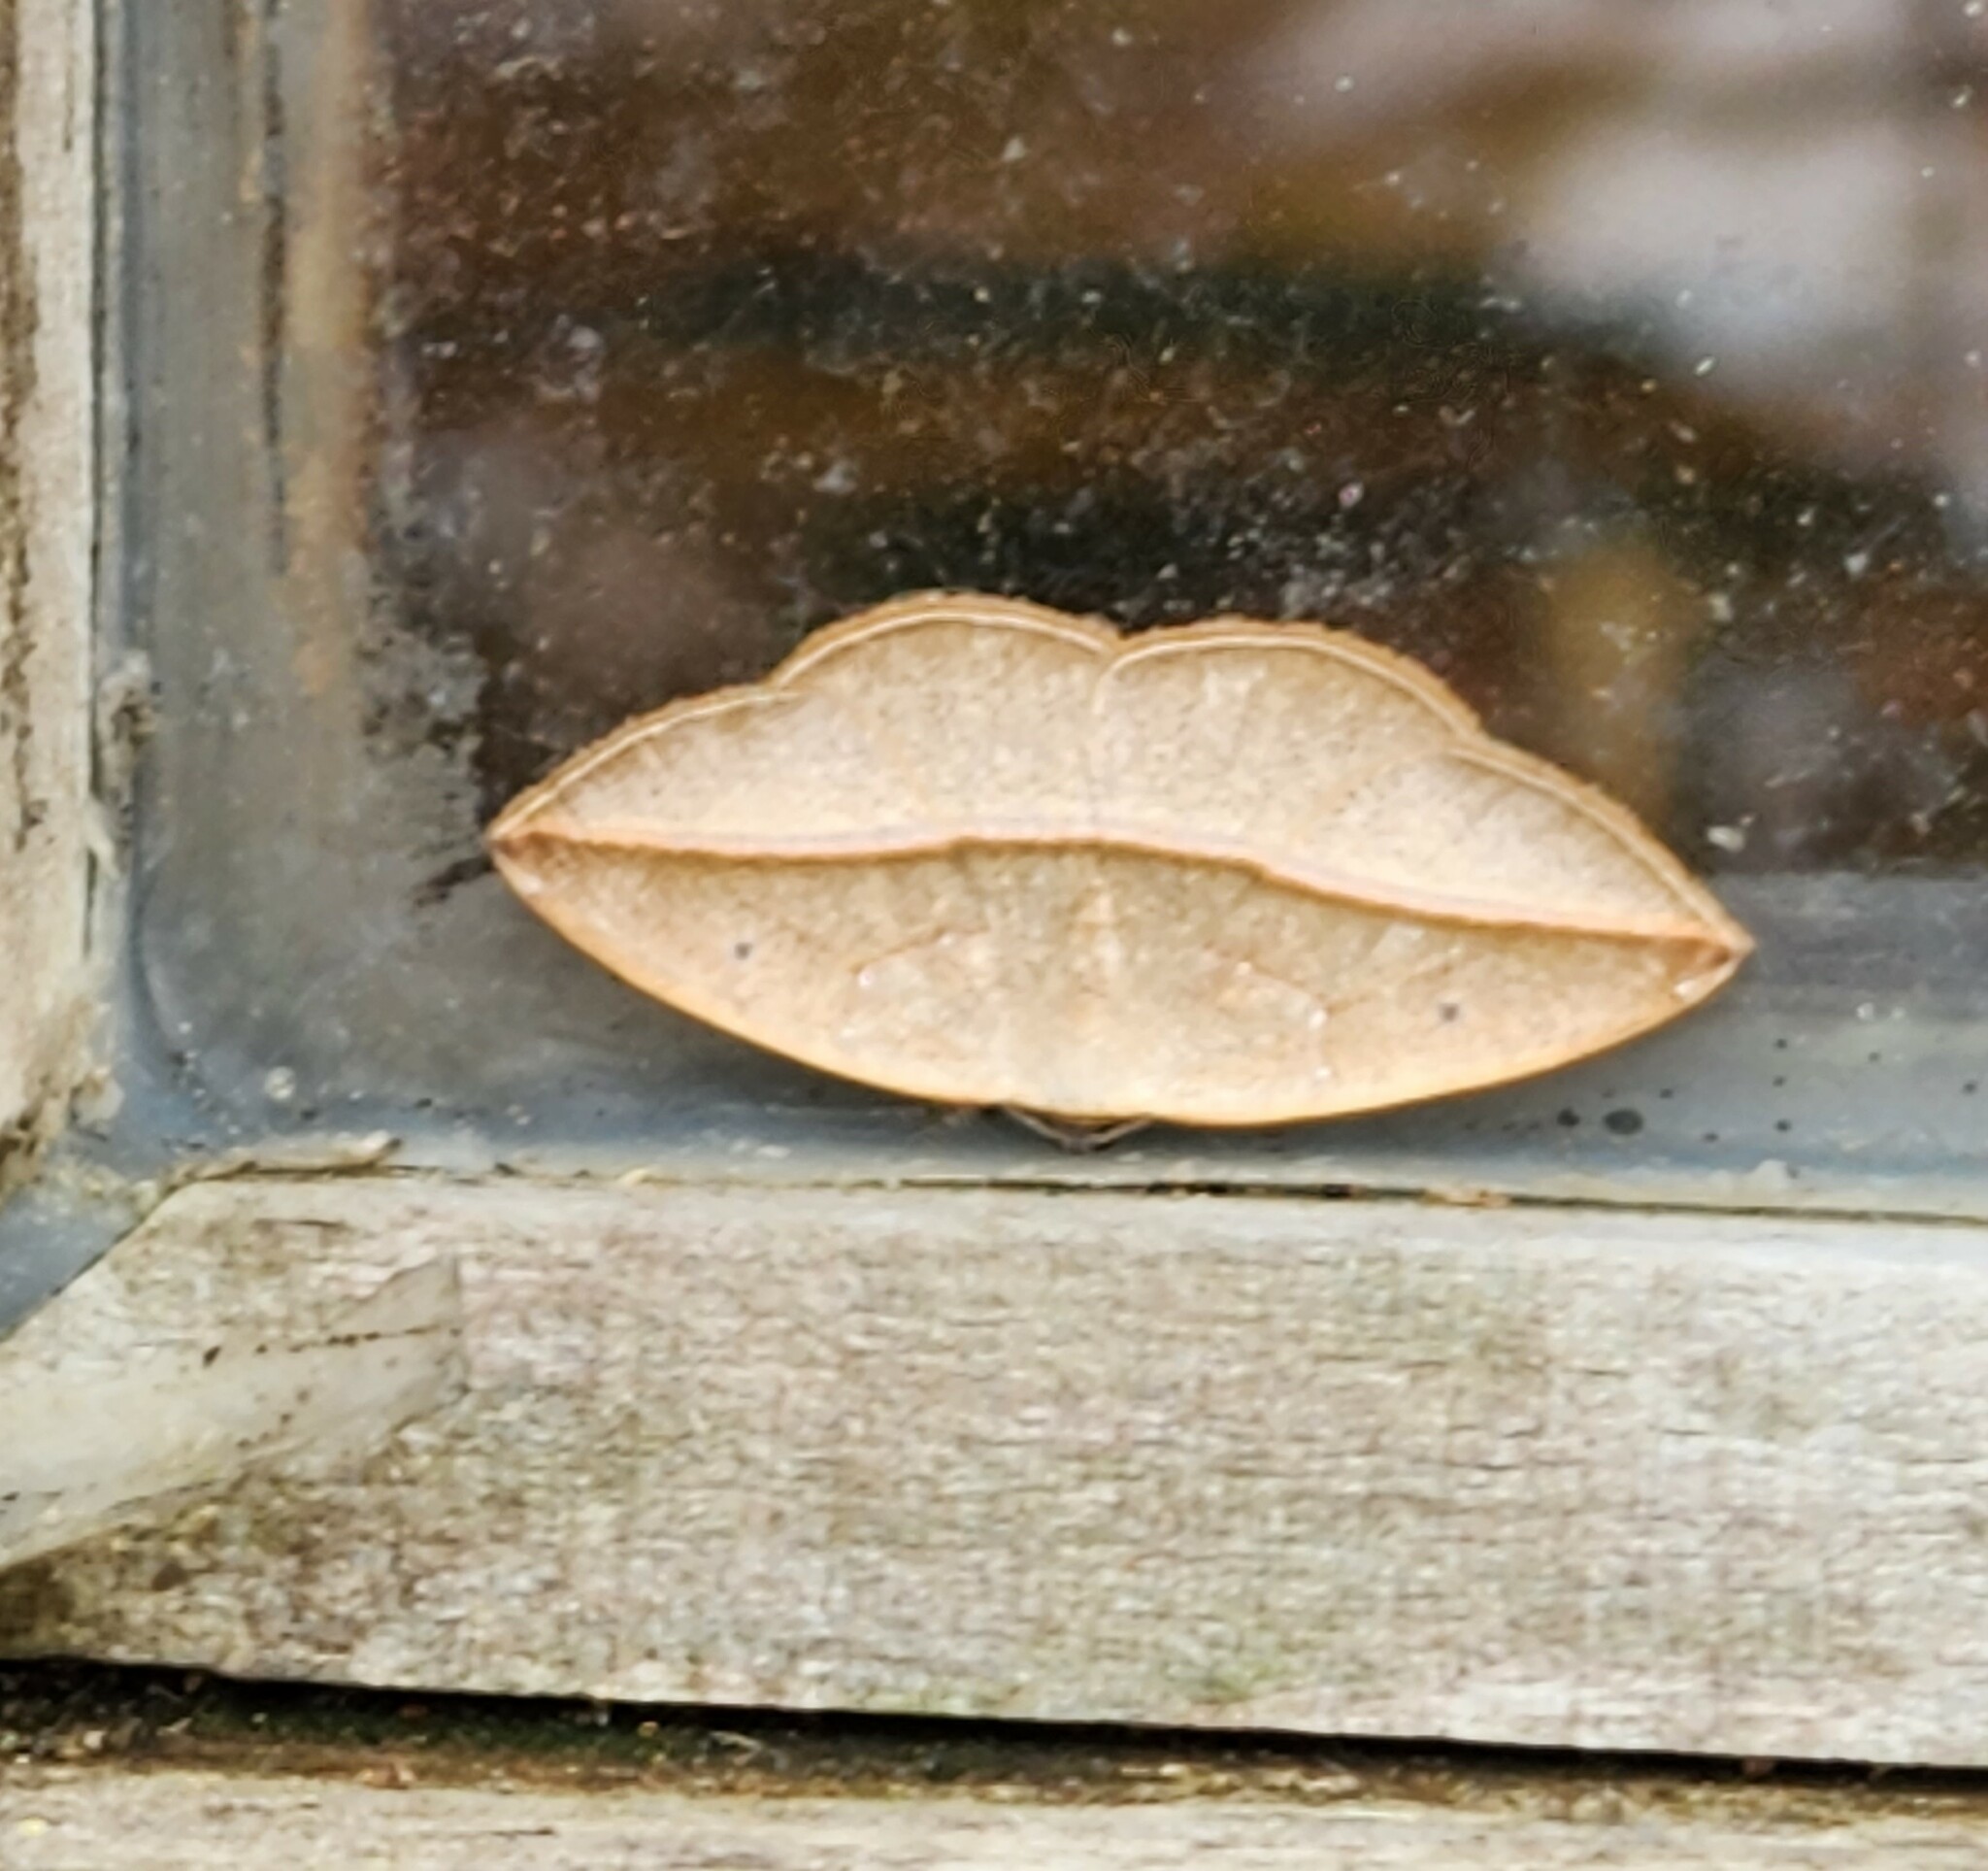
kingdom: Animalia
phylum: Arthropoda
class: Insecta
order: Lepidoptera
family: Geometridae
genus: Cartellodes
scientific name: Cartellodes levis
